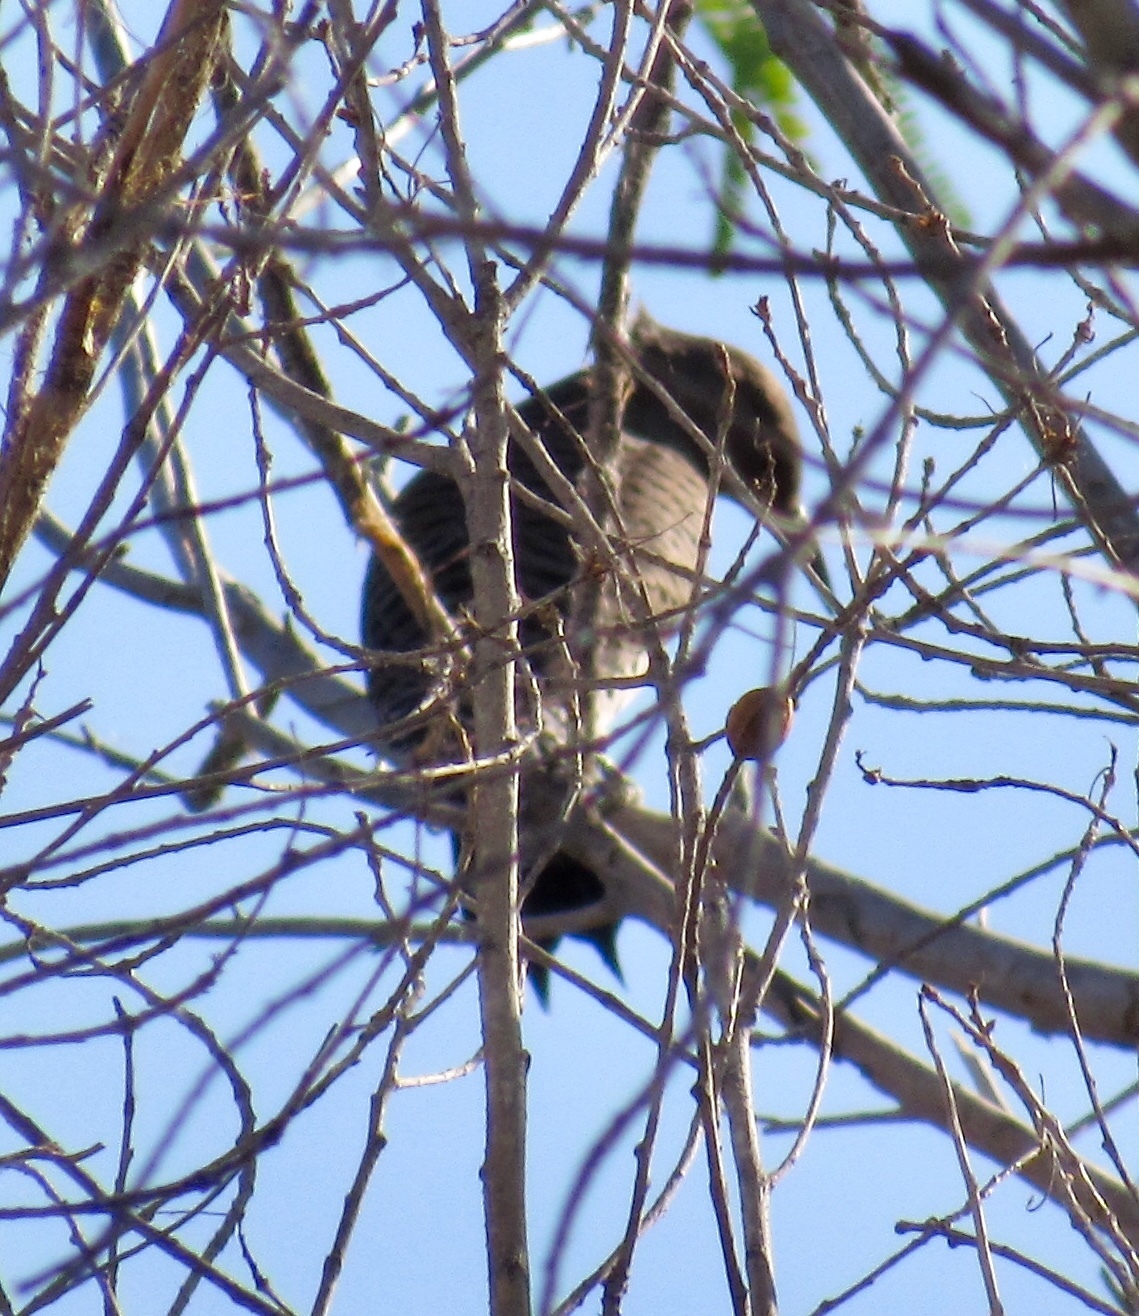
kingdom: Animalia
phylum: Chordata
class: Aves
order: Piciformes
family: Picidae
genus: Colaptes
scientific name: Colaptes auratus
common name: Northern flicker
